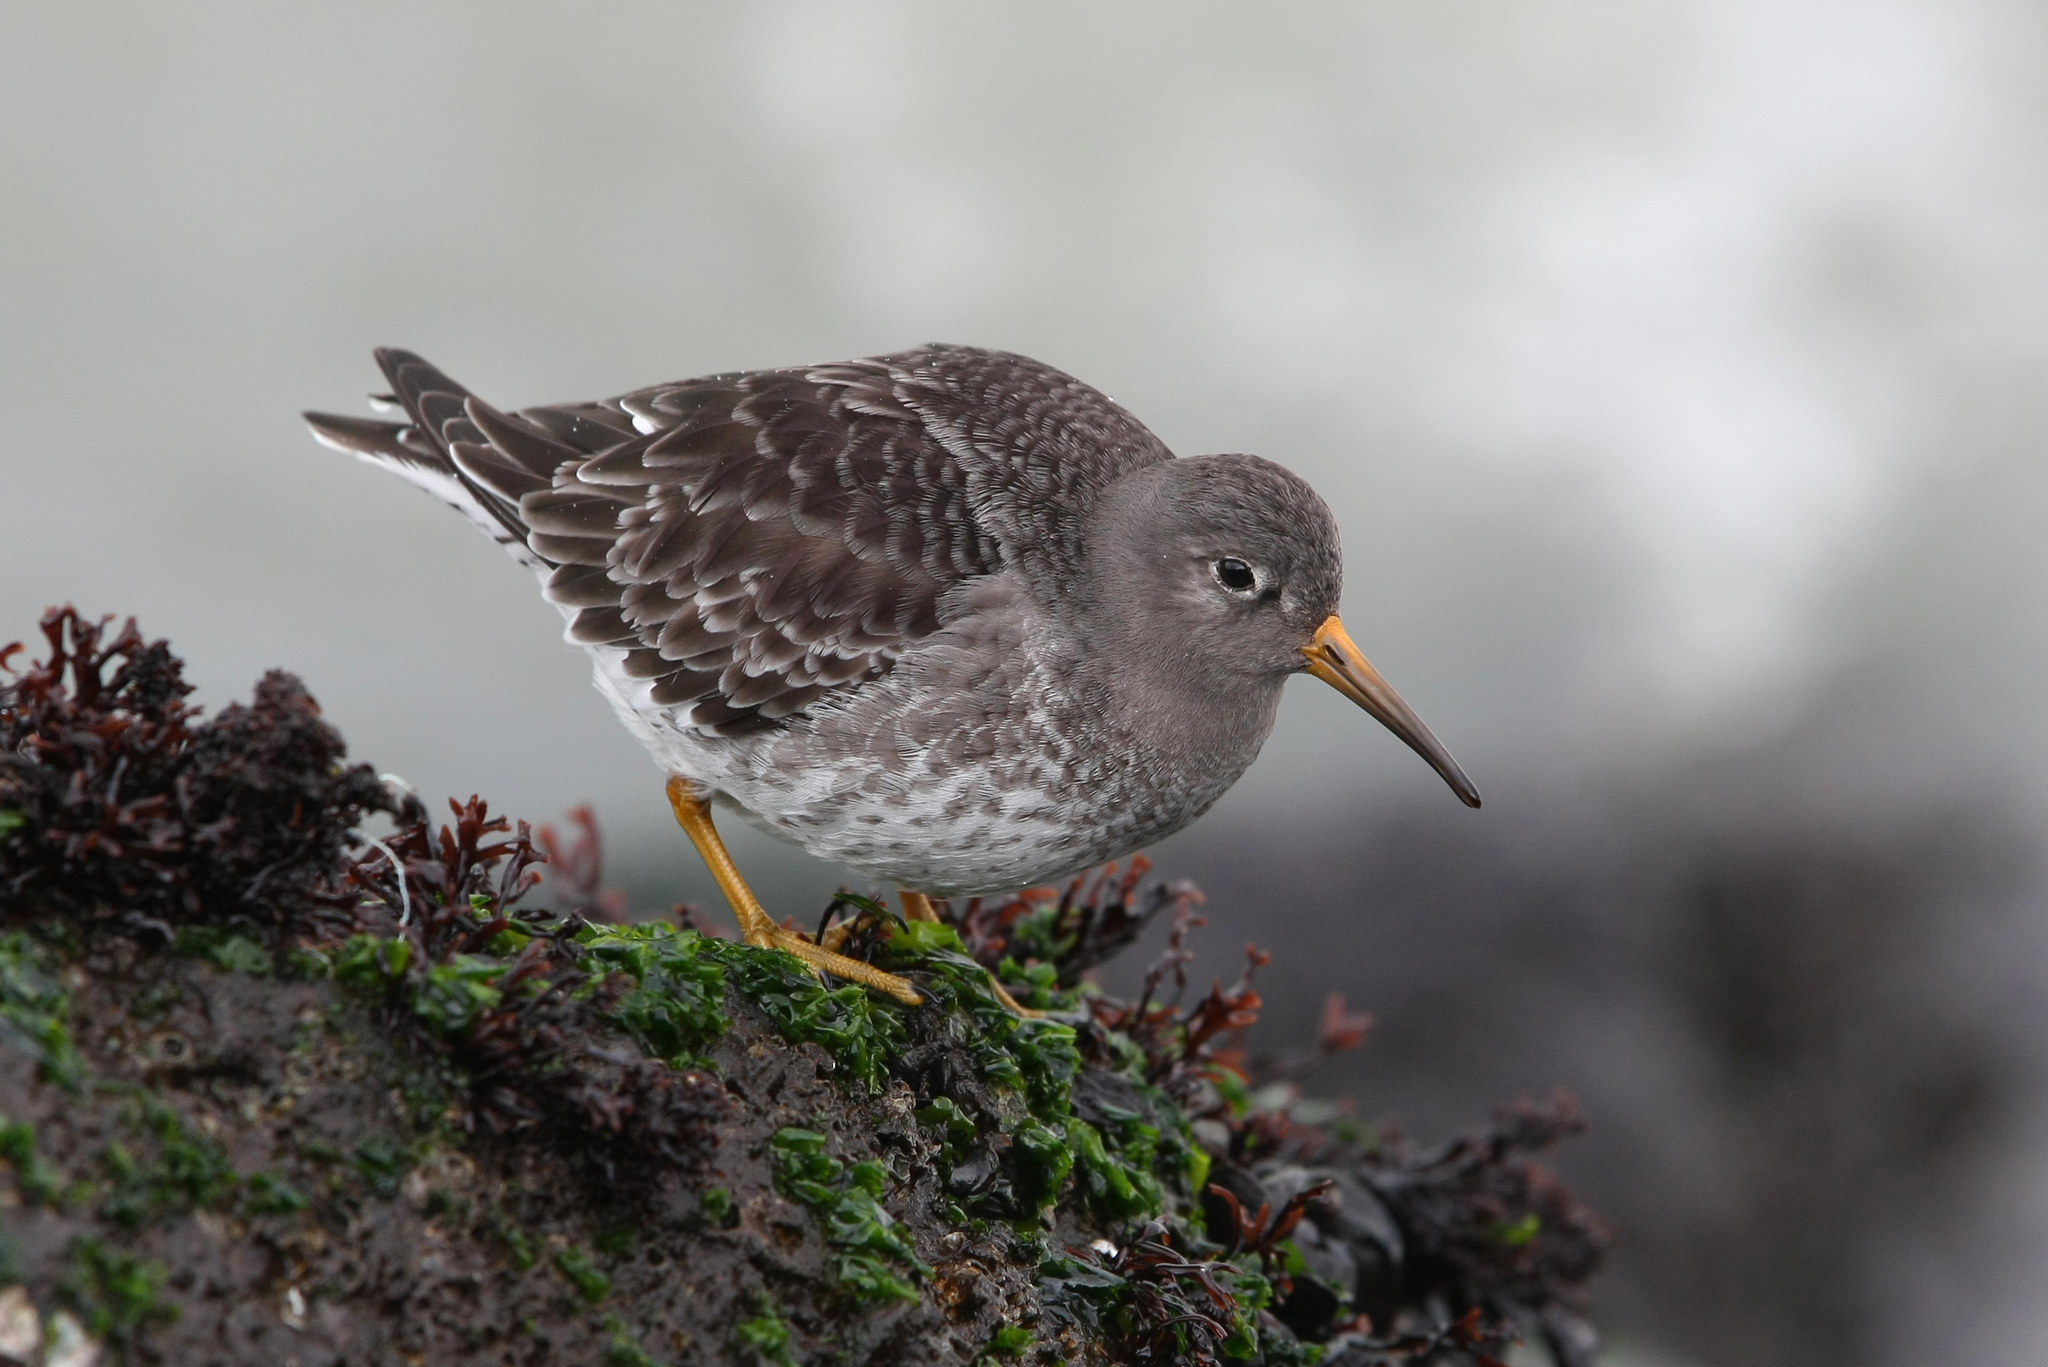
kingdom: Animalia
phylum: Chordata
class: Aves
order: Charadriiformes
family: Scolopacidae
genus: Calidris
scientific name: Calidris maritima
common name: Purple sandpiper
